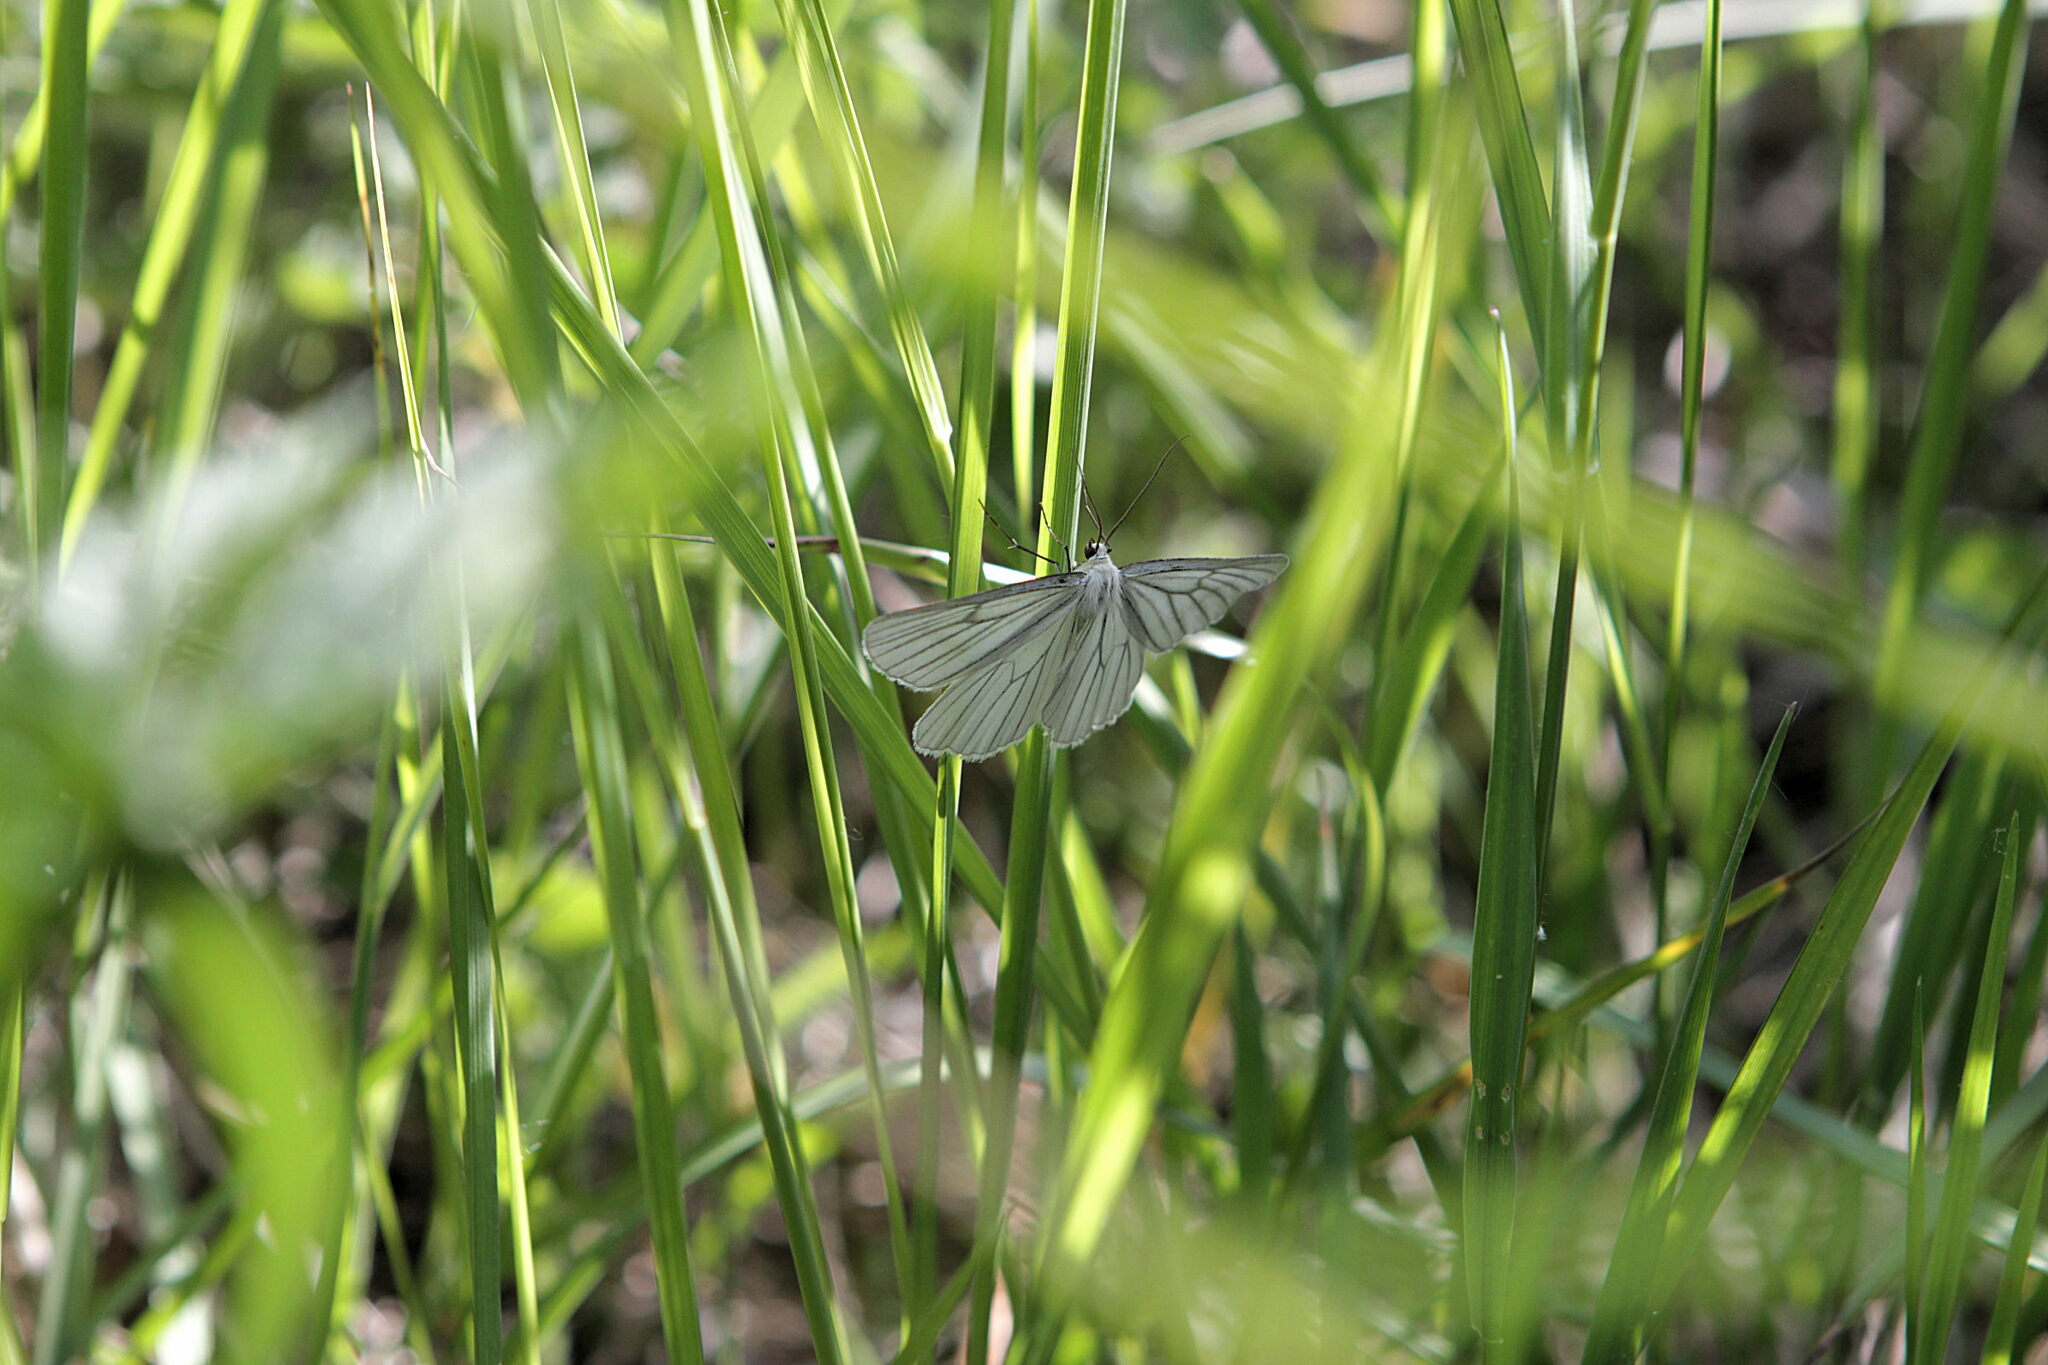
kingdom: Animalia
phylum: Arthropoda
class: Insecta
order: Lepidoptera
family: Geometridae
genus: Siona
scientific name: Siona lineata
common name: Black-veined moth
